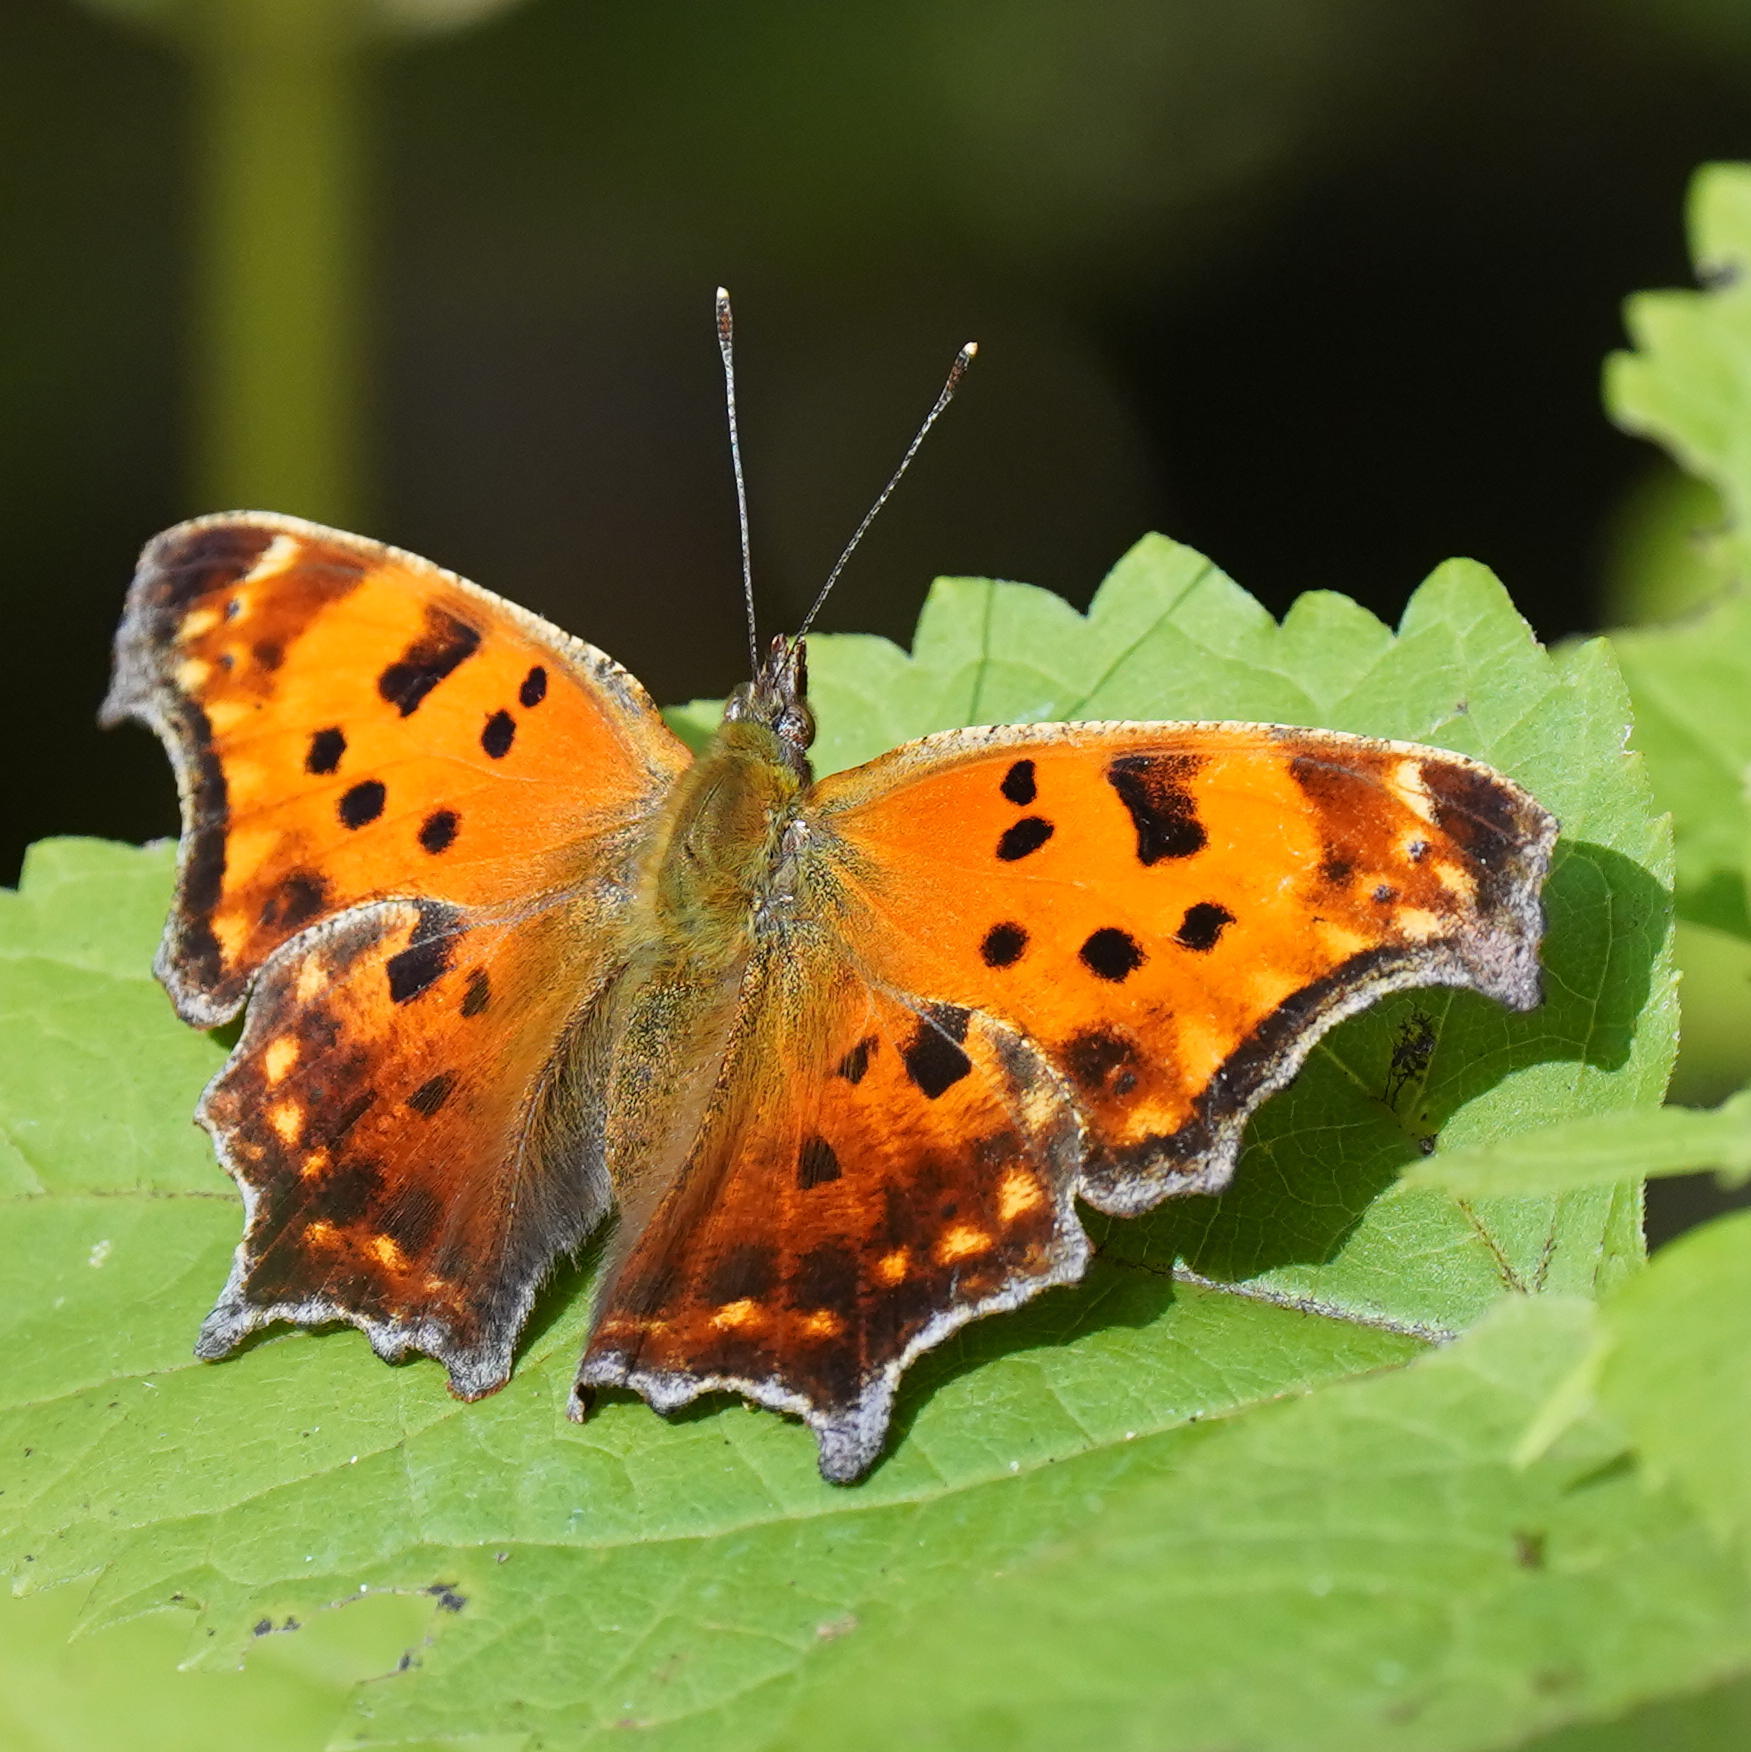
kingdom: Animalia
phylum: Arthropoda
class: Insecta
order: Lepidoptera
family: Nymphalidae
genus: Polygonia
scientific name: Polygonia comma
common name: Eastern comma
